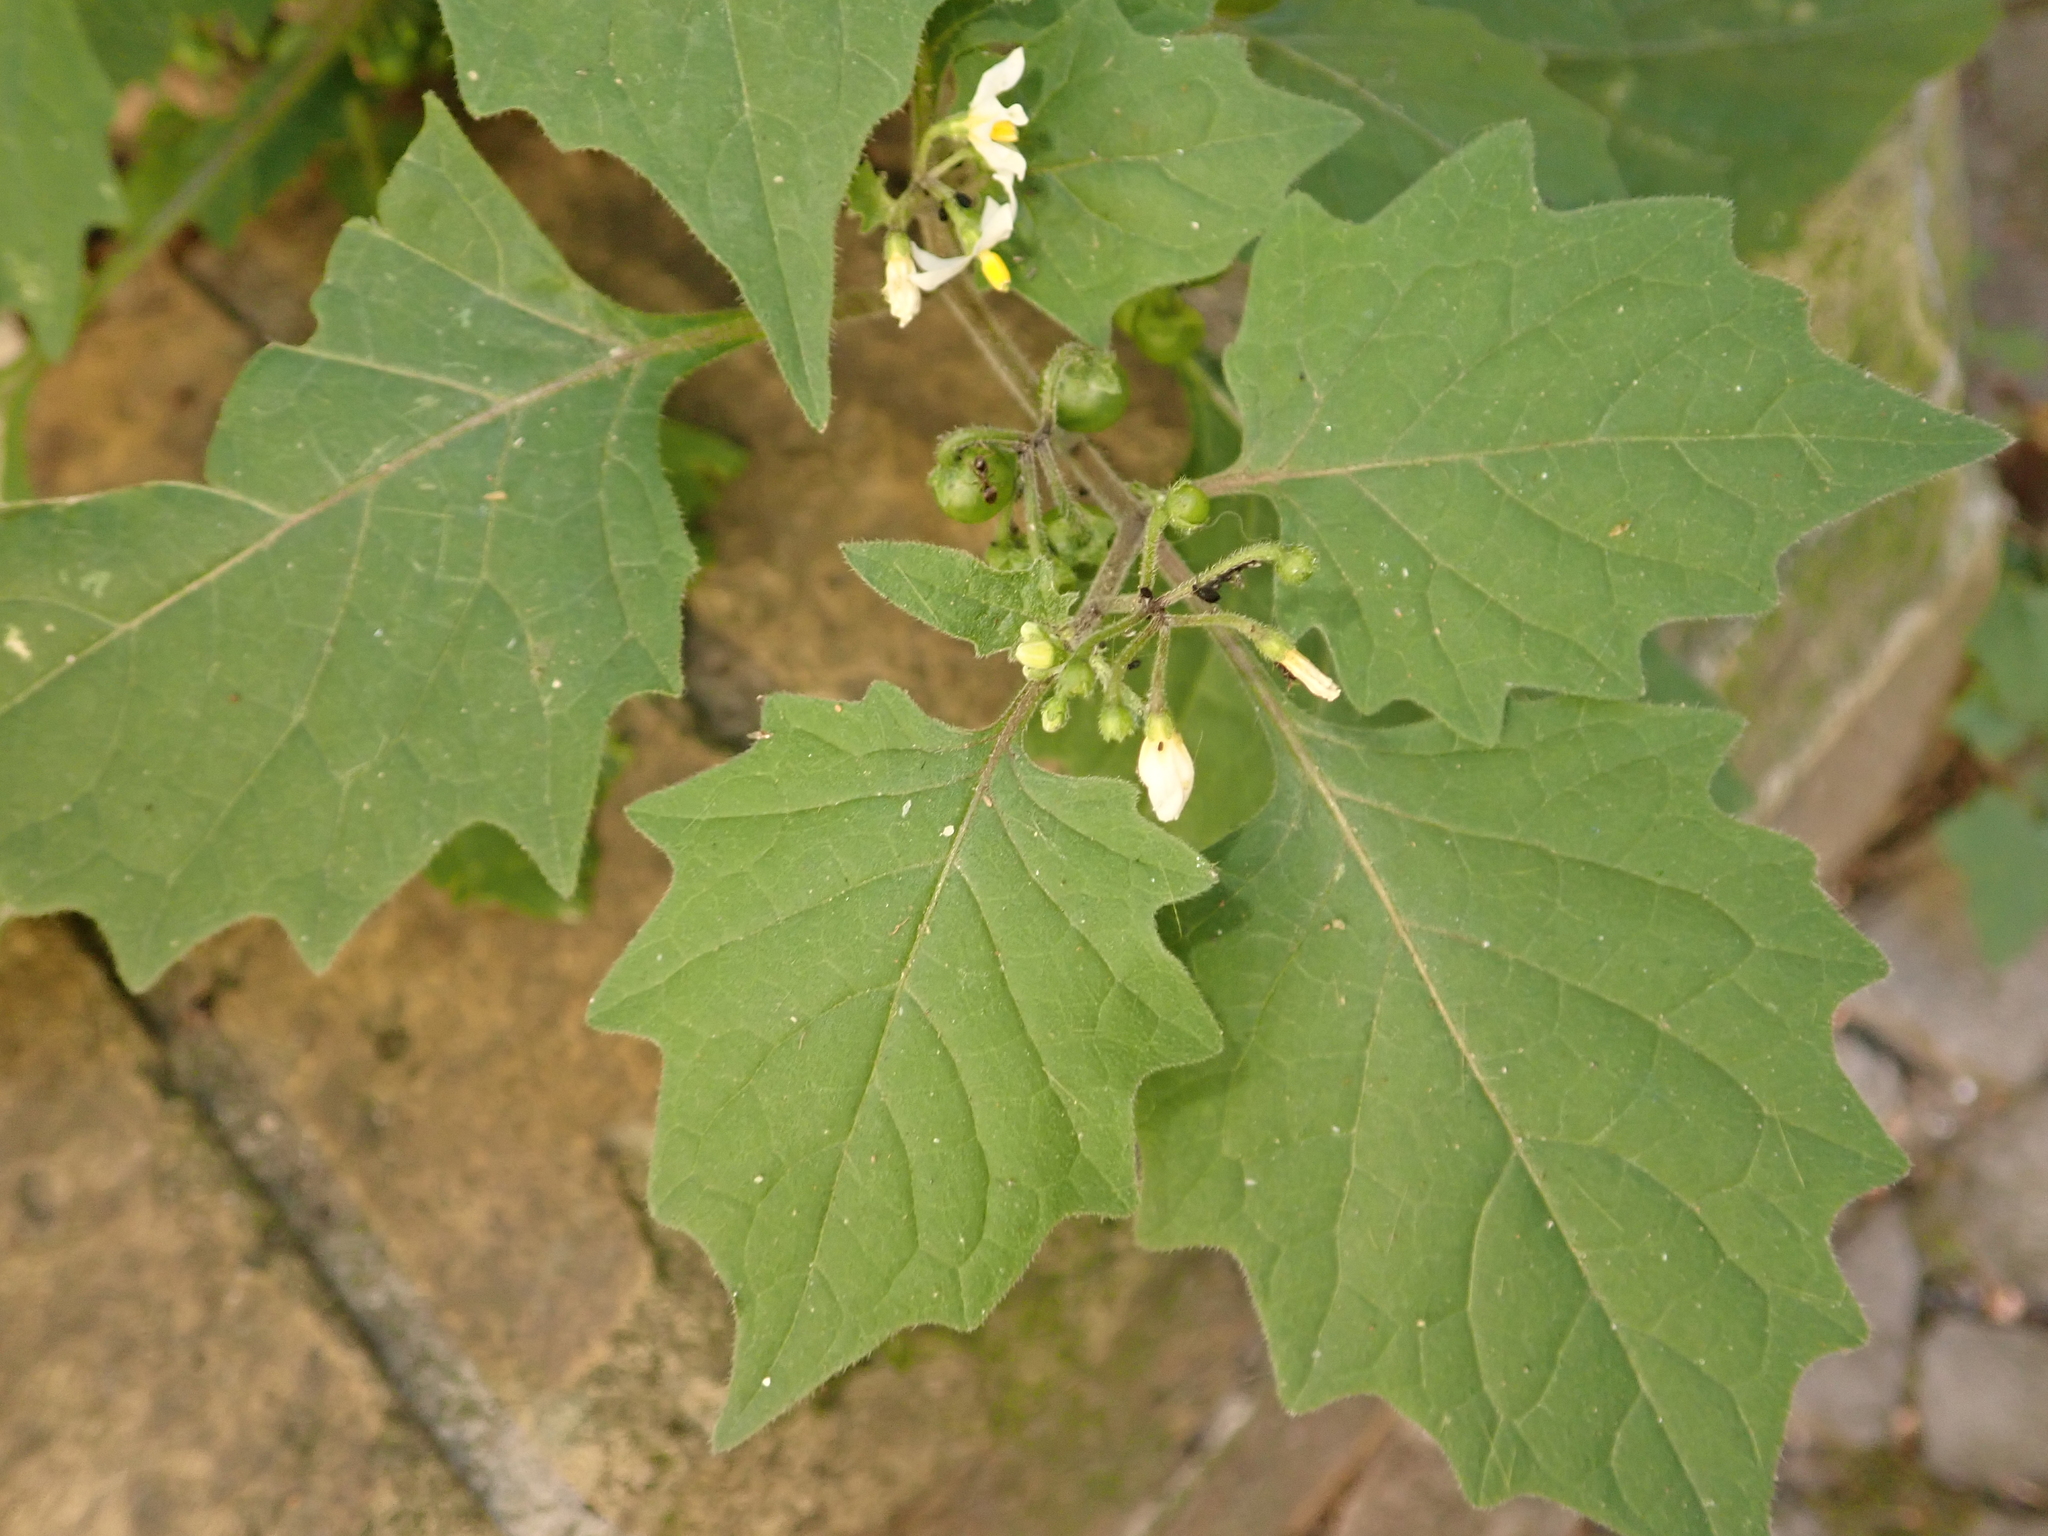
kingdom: Plantae
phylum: Tracheophyta
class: Magnoliopsida
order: Solanales
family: Solanaceae
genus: Solanum
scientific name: Solanum nigrum
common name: Black nightshade
